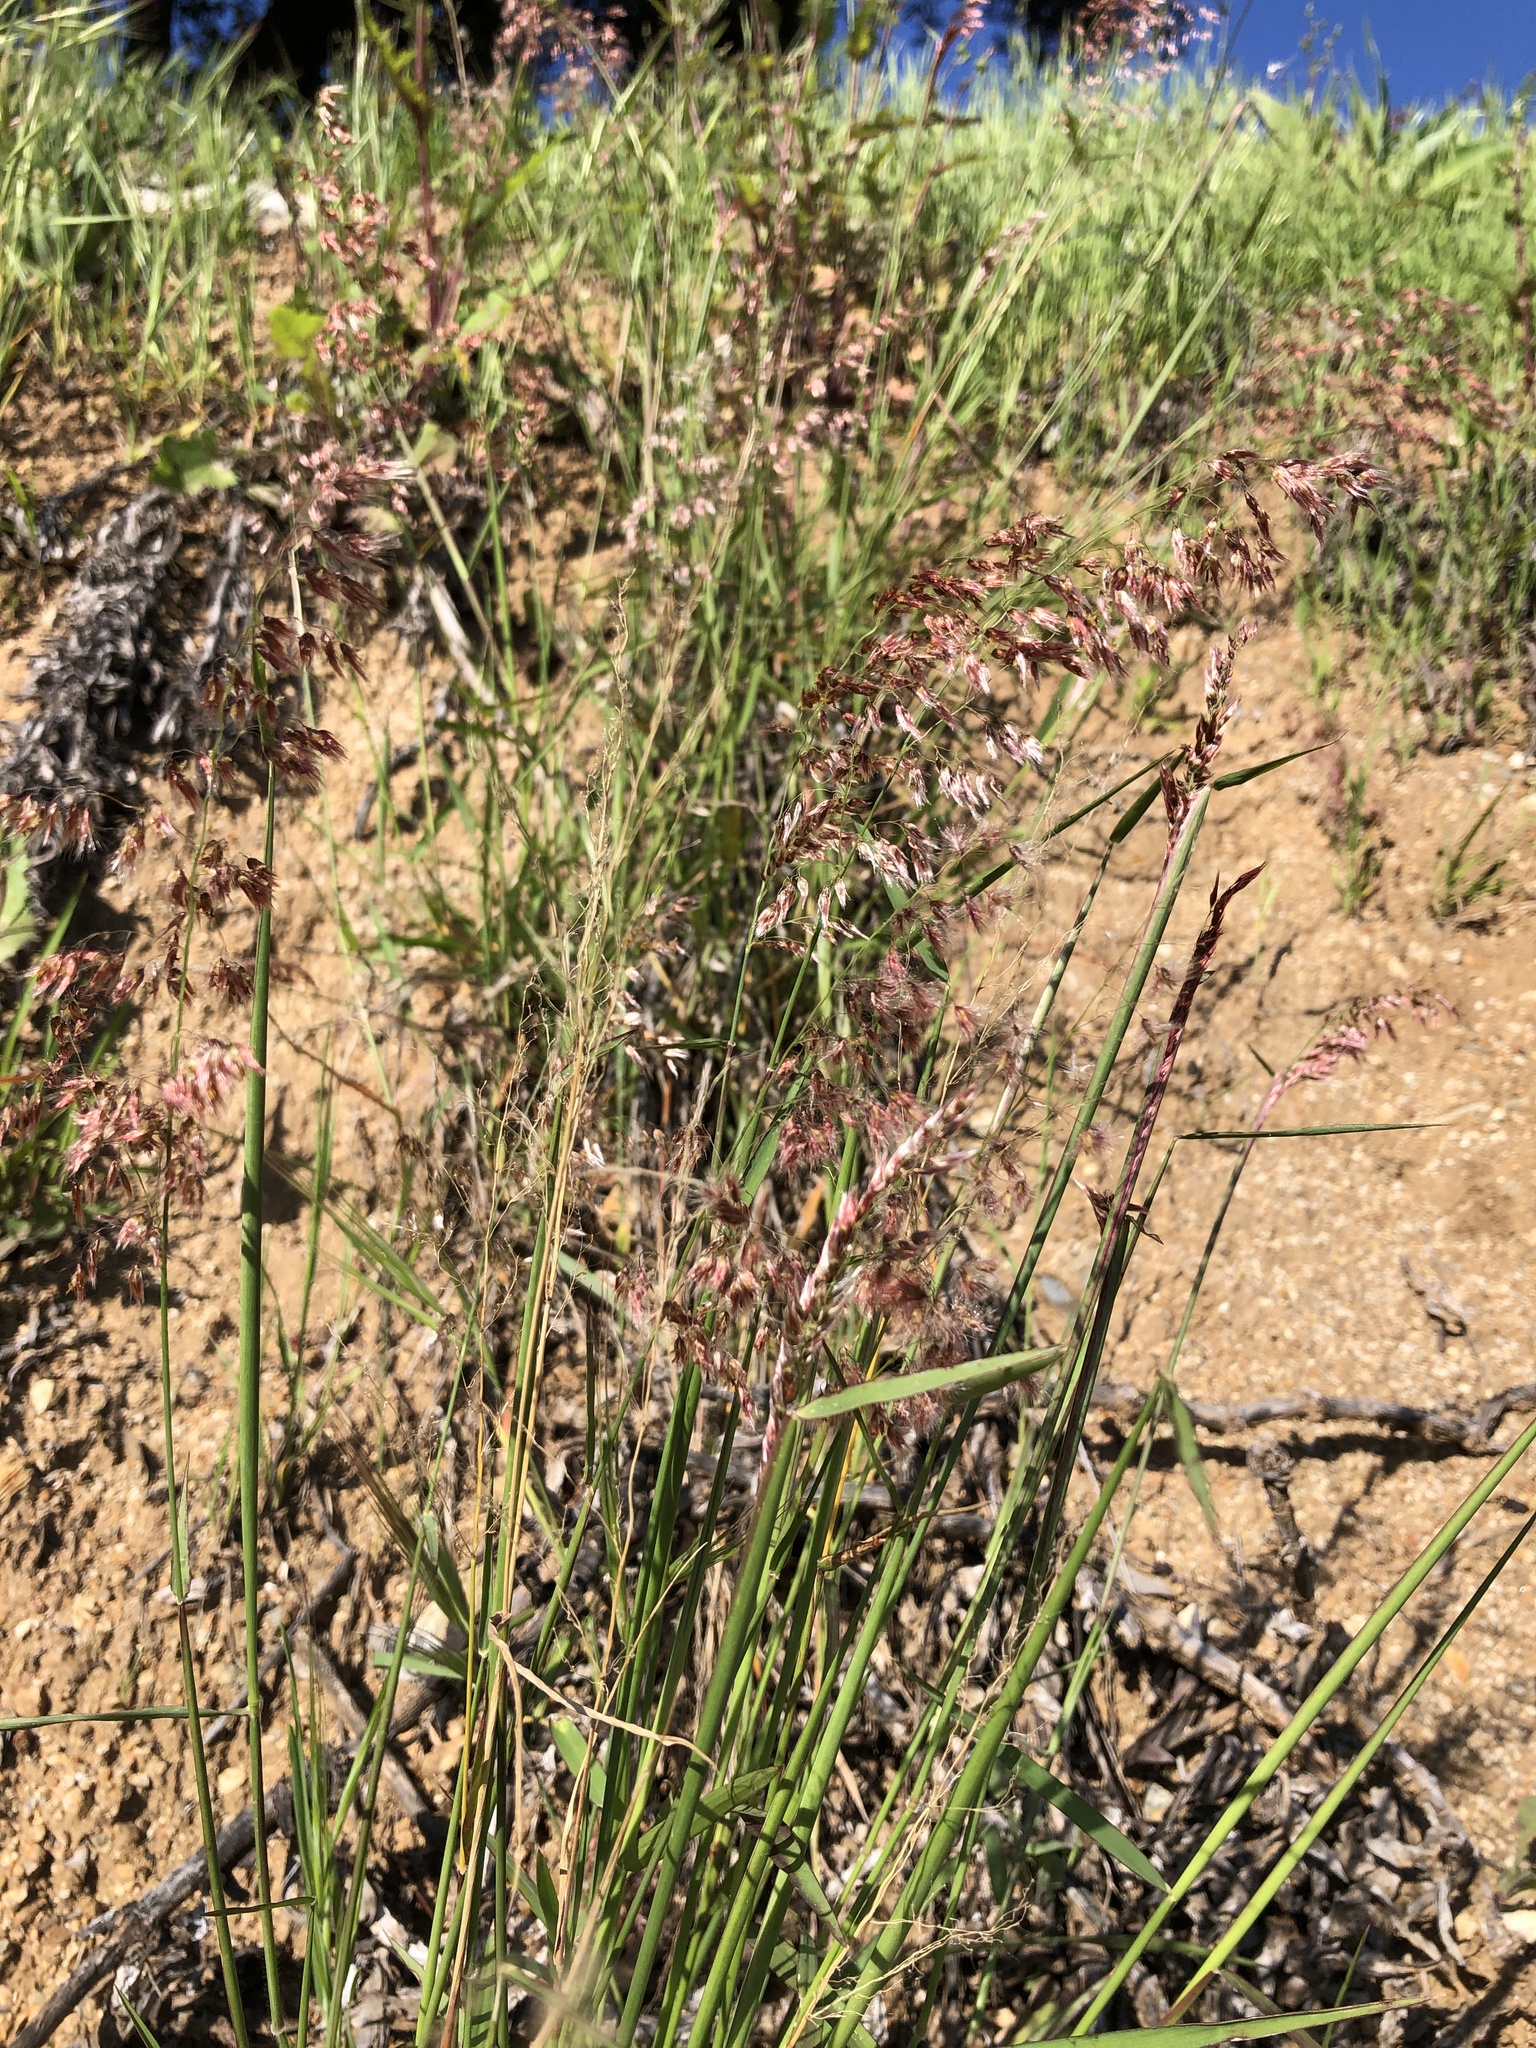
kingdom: Plantae
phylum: Tracheophyta
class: Liliopsida
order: Poales
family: Poaceae
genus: Melinis
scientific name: Melinis repens
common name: Rose natal grass
